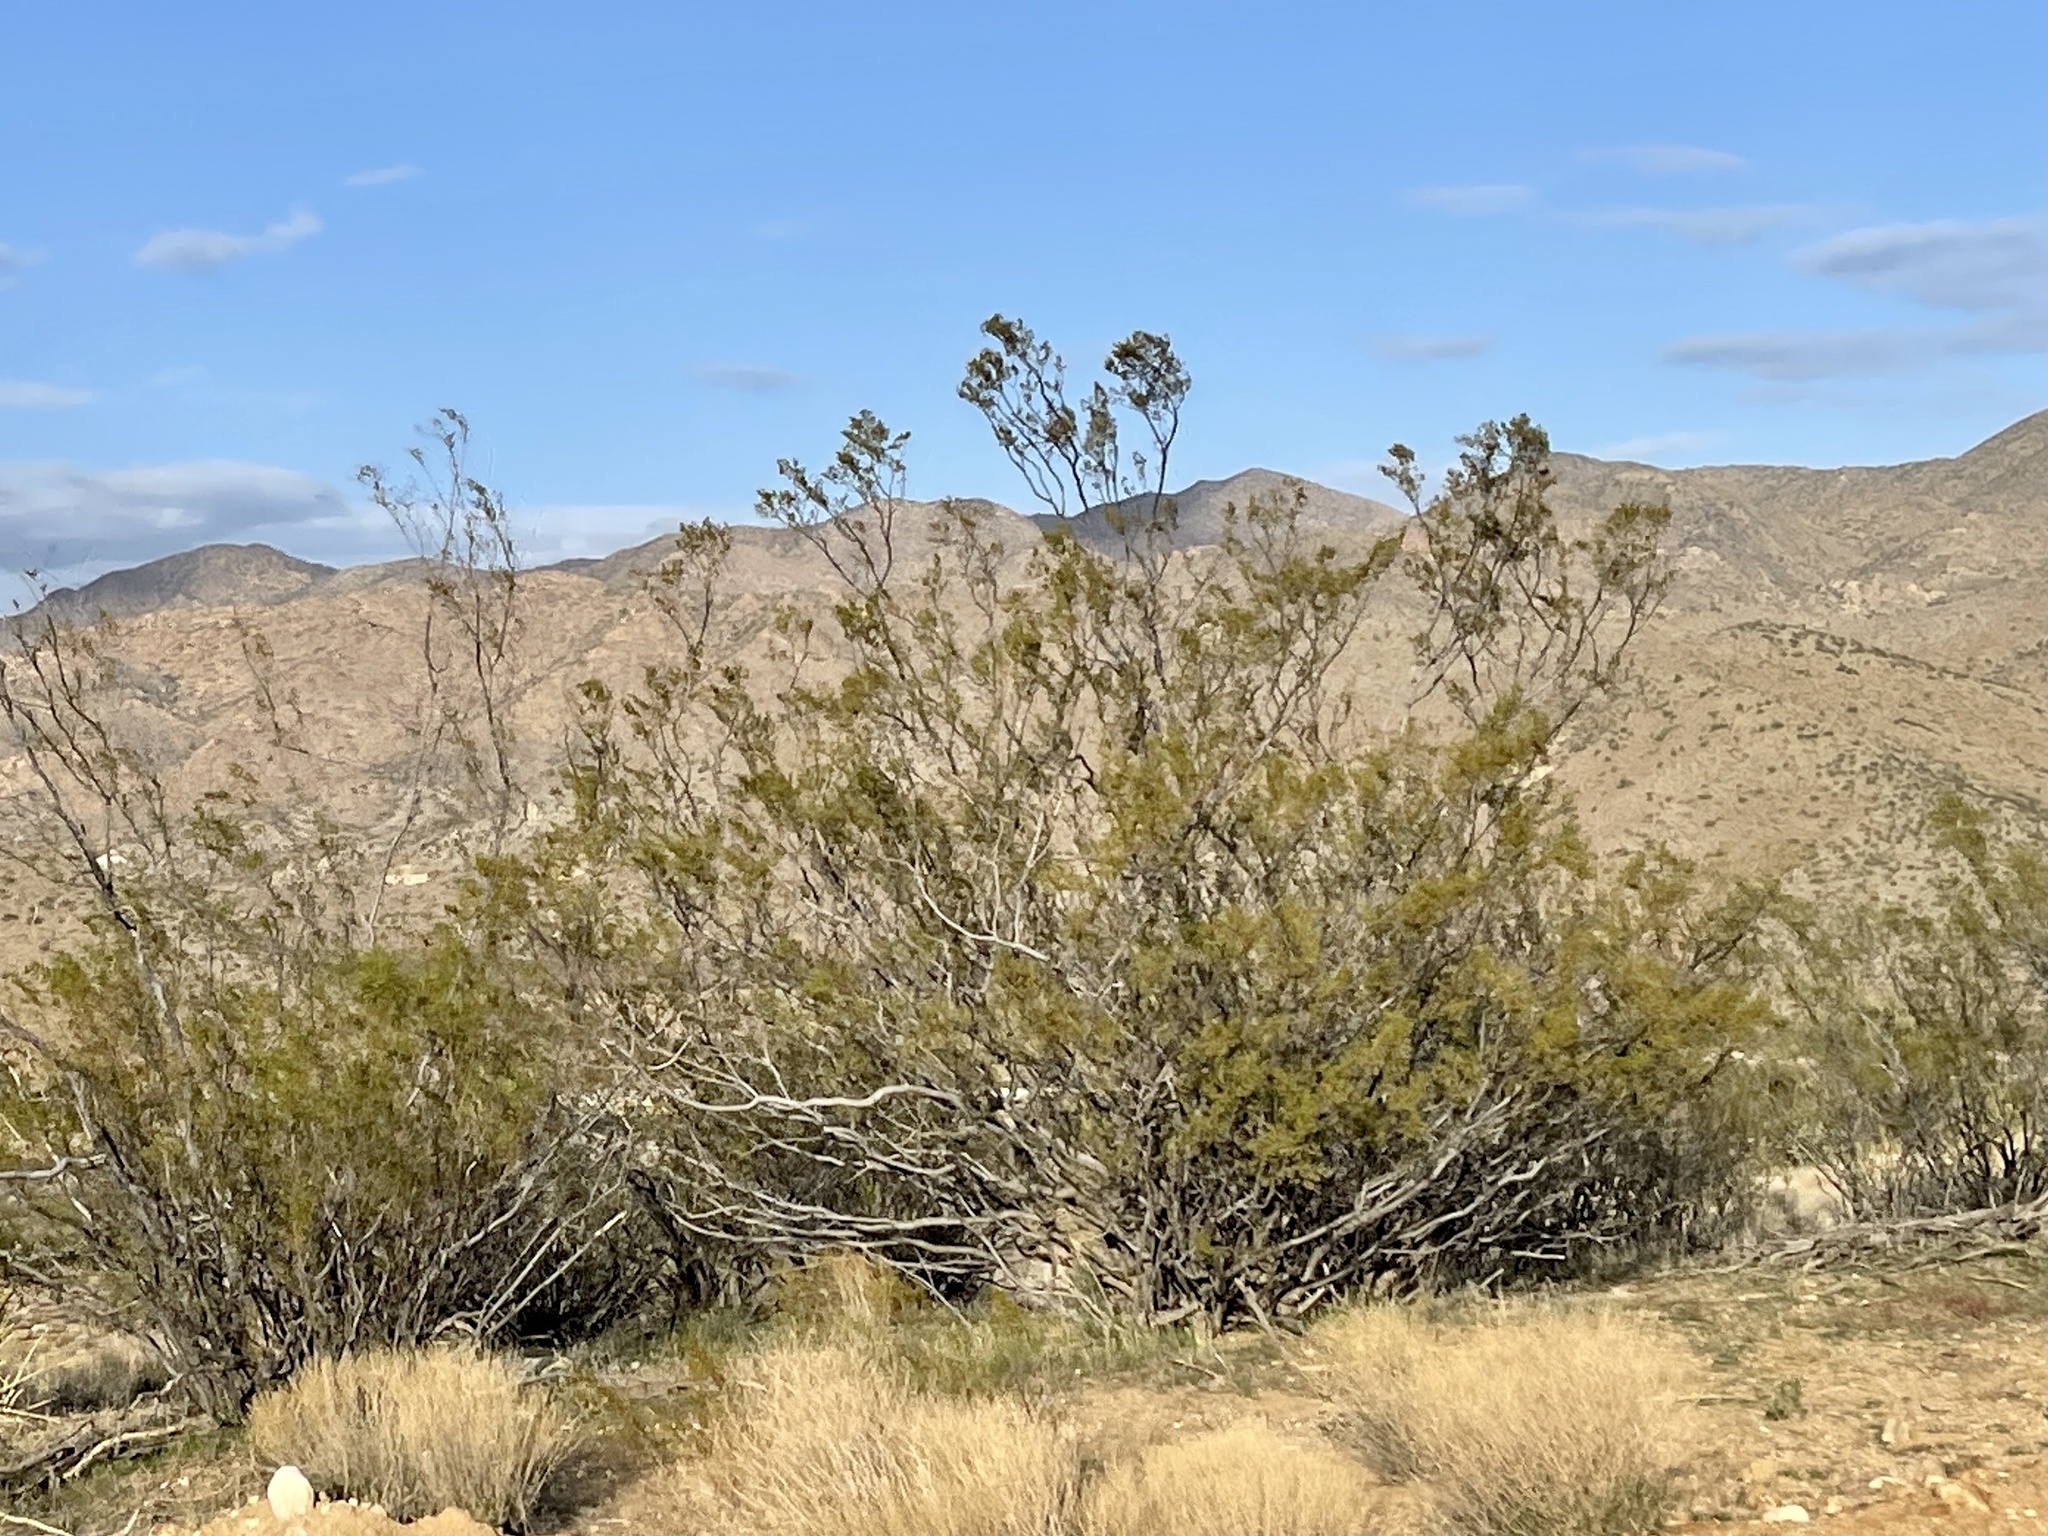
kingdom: Plantae
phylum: Tracheophyta
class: Magnoliopsida
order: Zygophyllales
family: Zygophyllaceae
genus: Larrea
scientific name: Larrea tridentata
